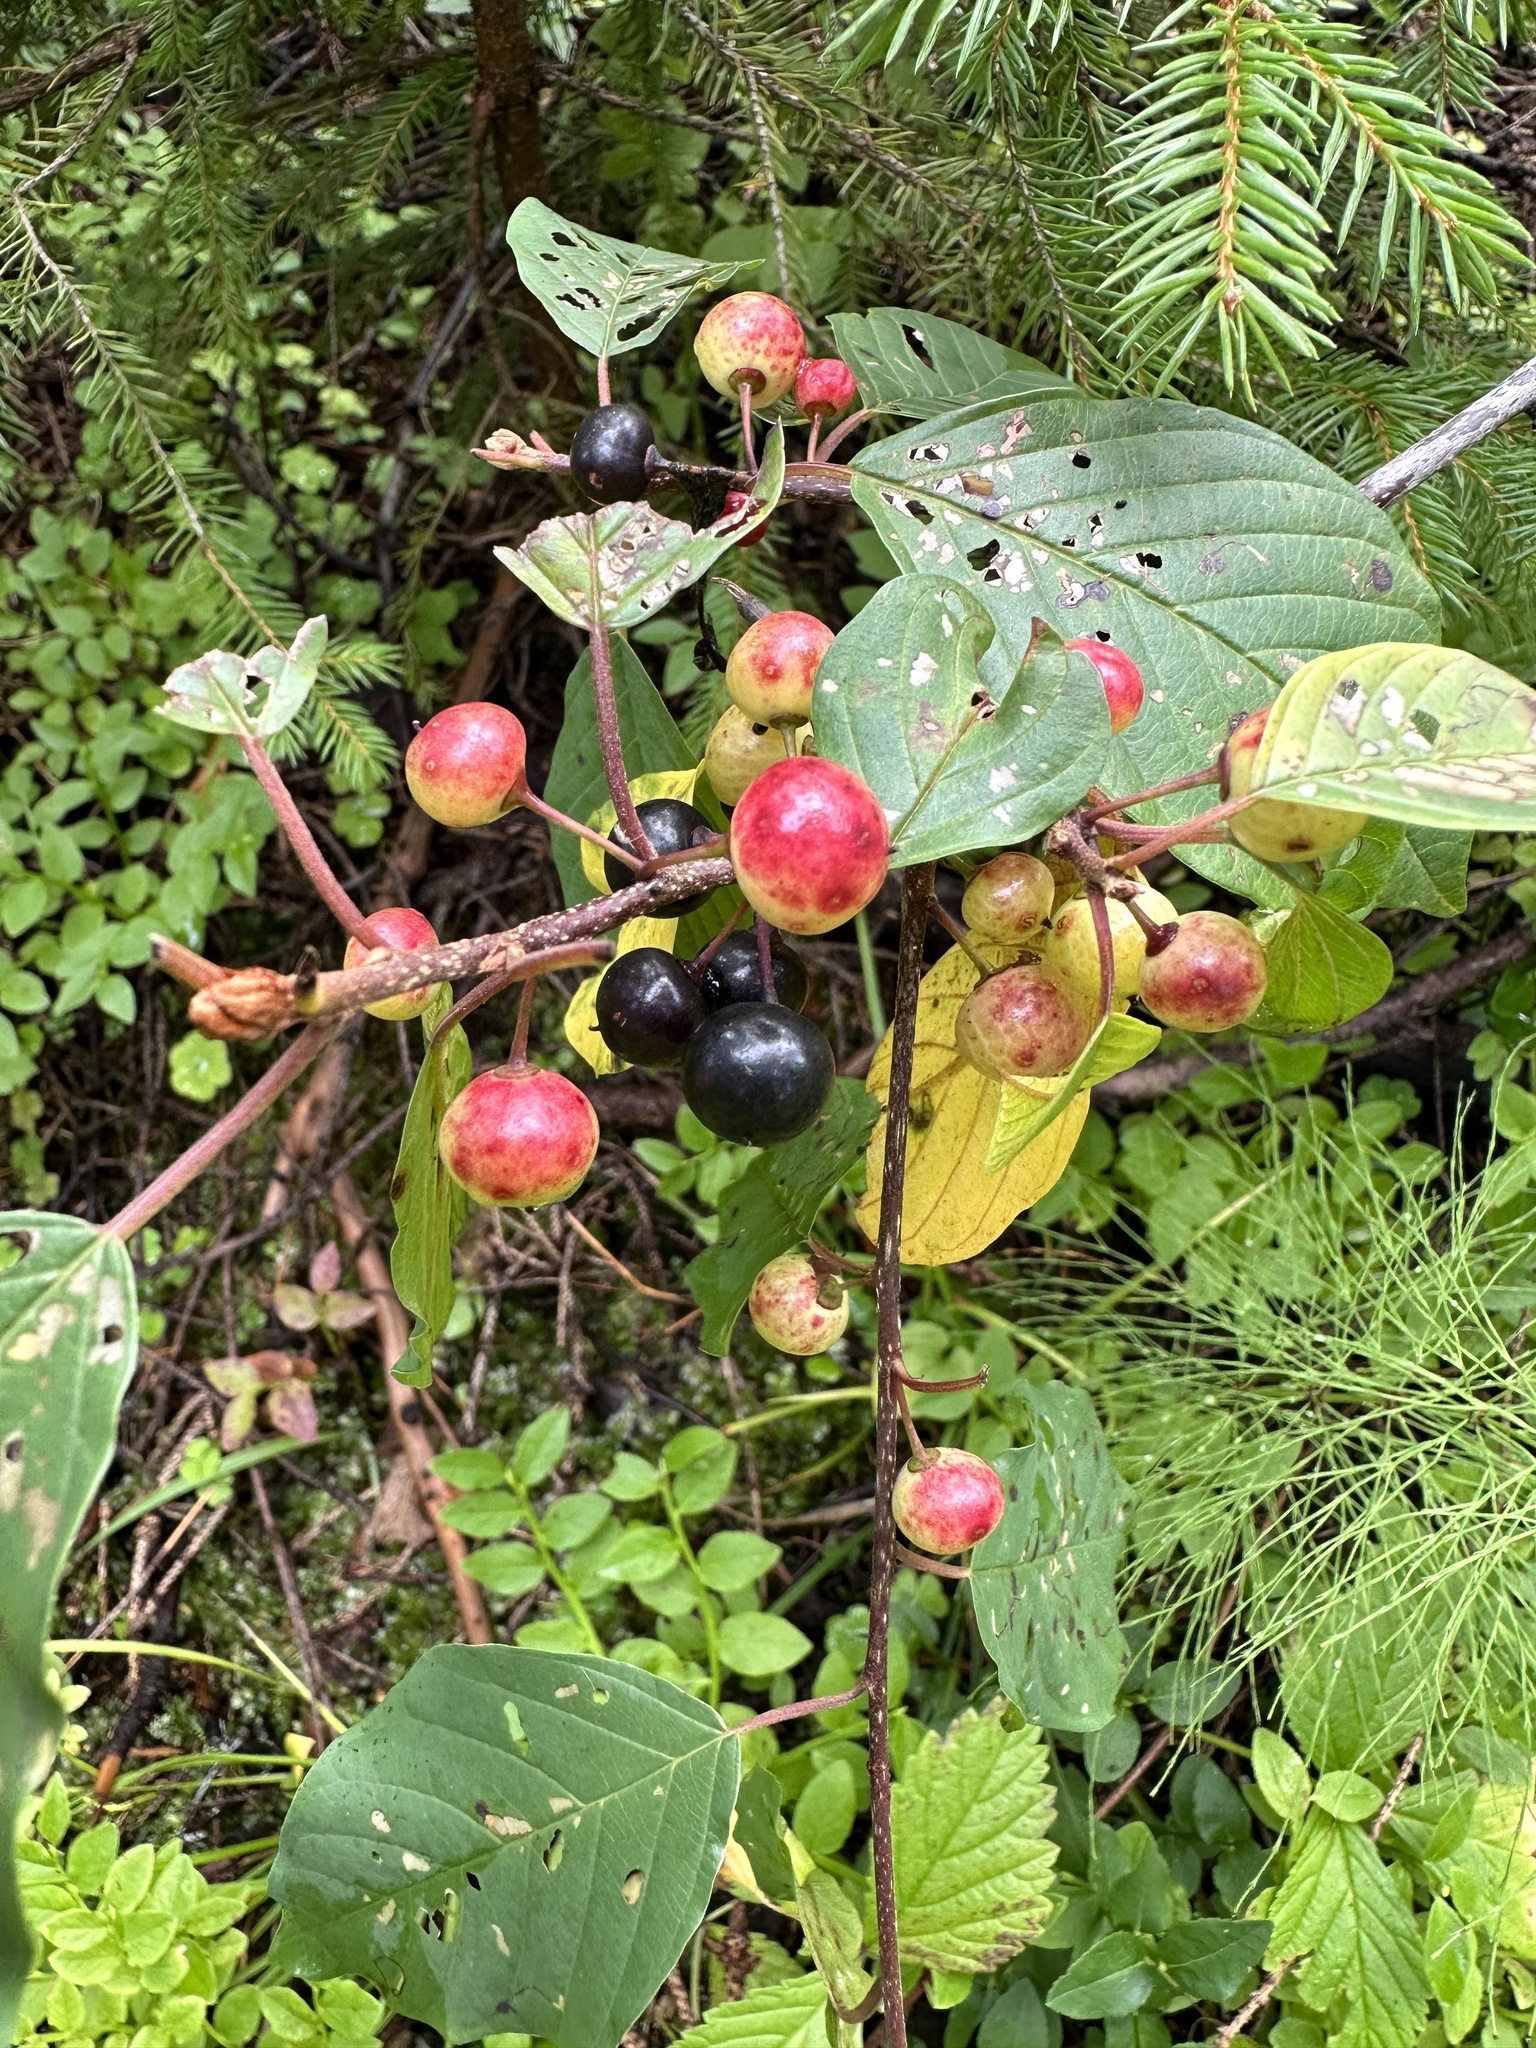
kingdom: Plantae
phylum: Tracheophyta
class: Magnoliopsida
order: Rosales
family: Rhamnaceae
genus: Frangula
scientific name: Frangula alnus
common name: Alder buckthorn
